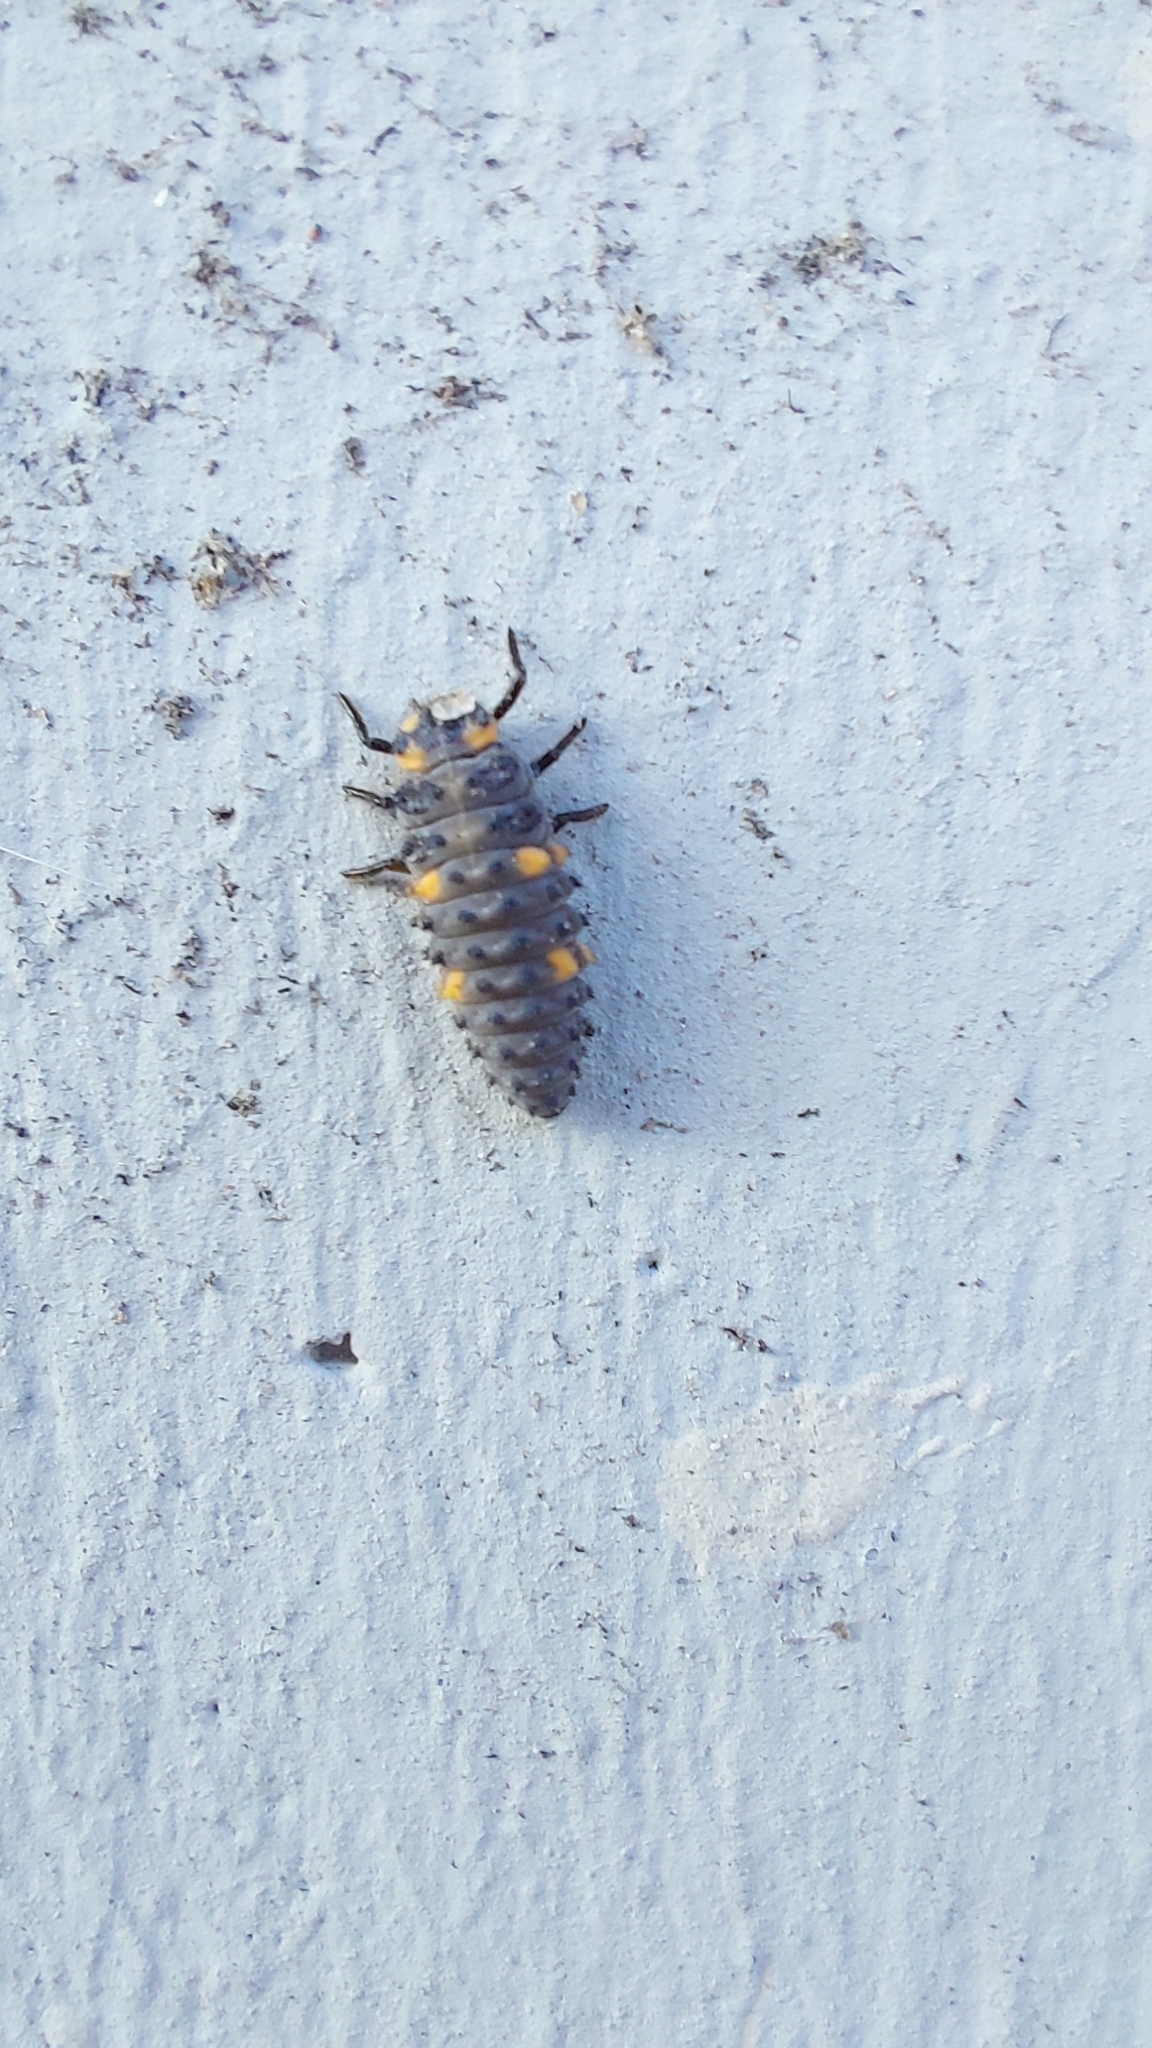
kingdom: Animalia
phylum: Arthropoda
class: Insecta
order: Coleoptera
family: Coccinellidae
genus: Coccinella
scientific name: Coccinella septempunctata
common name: Sevenspotted lady beetle
